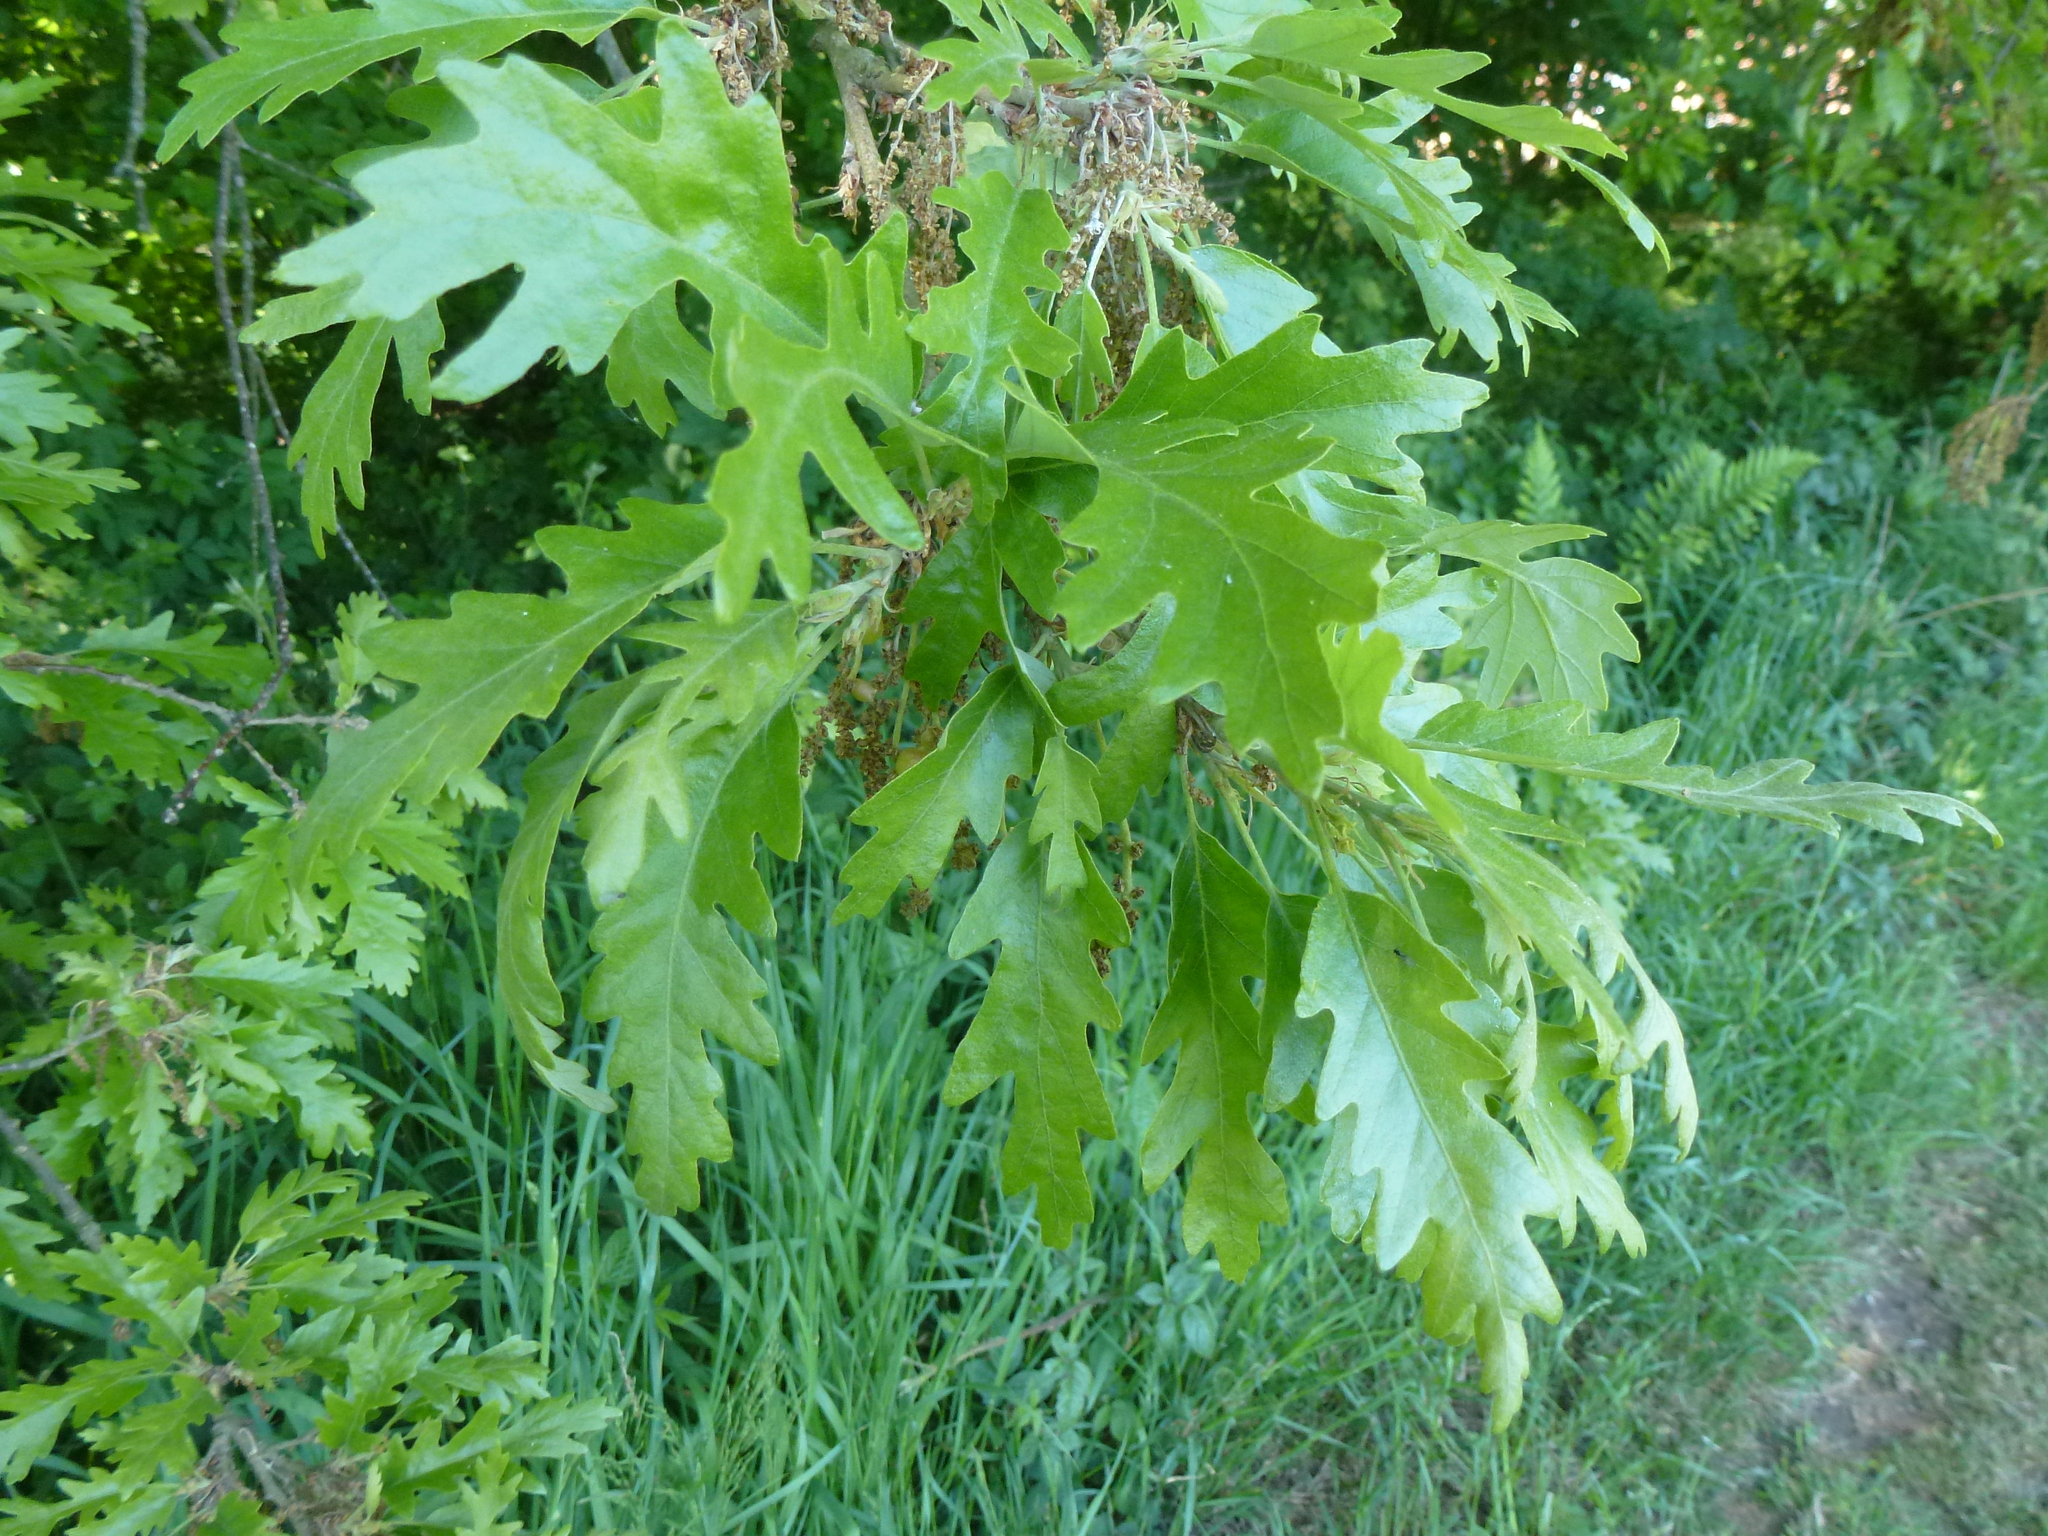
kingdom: Plantae
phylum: Tracheophyta
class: Magnoliopsida
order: Fagales
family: Fagaceae
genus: Quercus
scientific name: Quercus cerris
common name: Turkey oak
